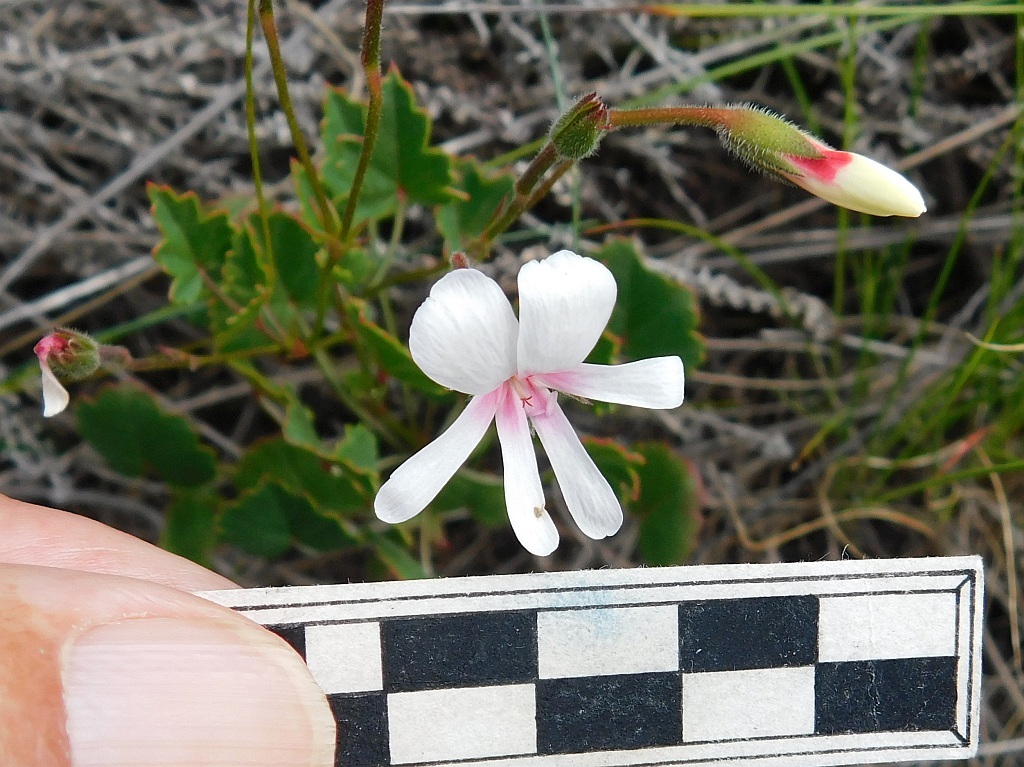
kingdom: Plantae
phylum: Tracheophyta
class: Magnoliopsida
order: Geraniales
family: Geraniaceae
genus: Pelargonium
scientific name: Pelargonium setulosum
